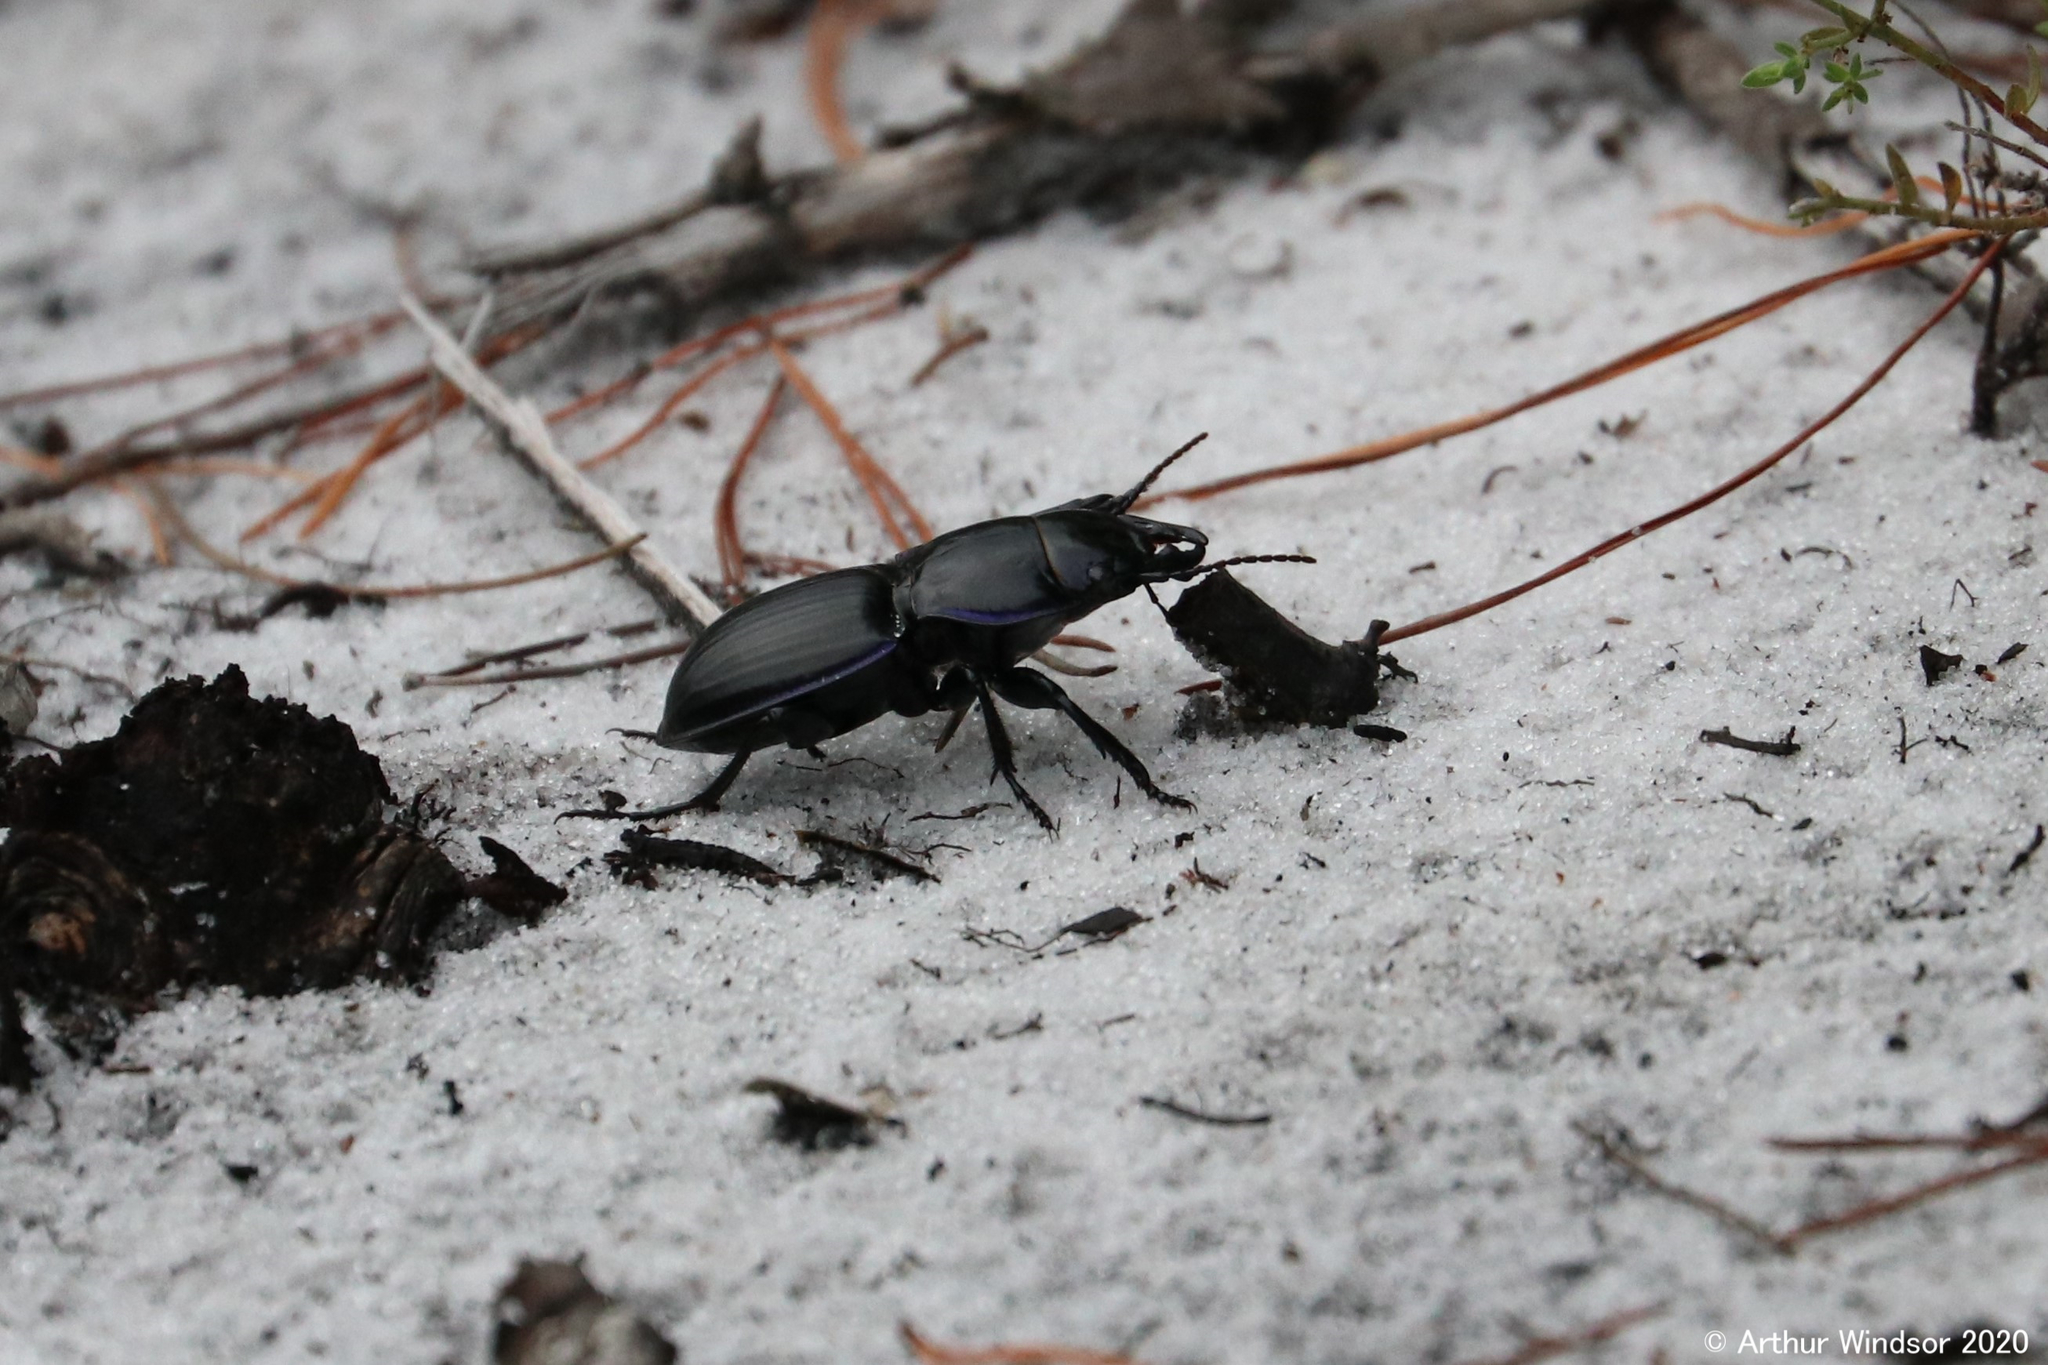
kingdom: Animalia
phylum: Arthropoda
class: Insecta
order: Coleoptera
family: Carabidae
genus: Pasimachus
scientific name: Pasimachus strenuus
